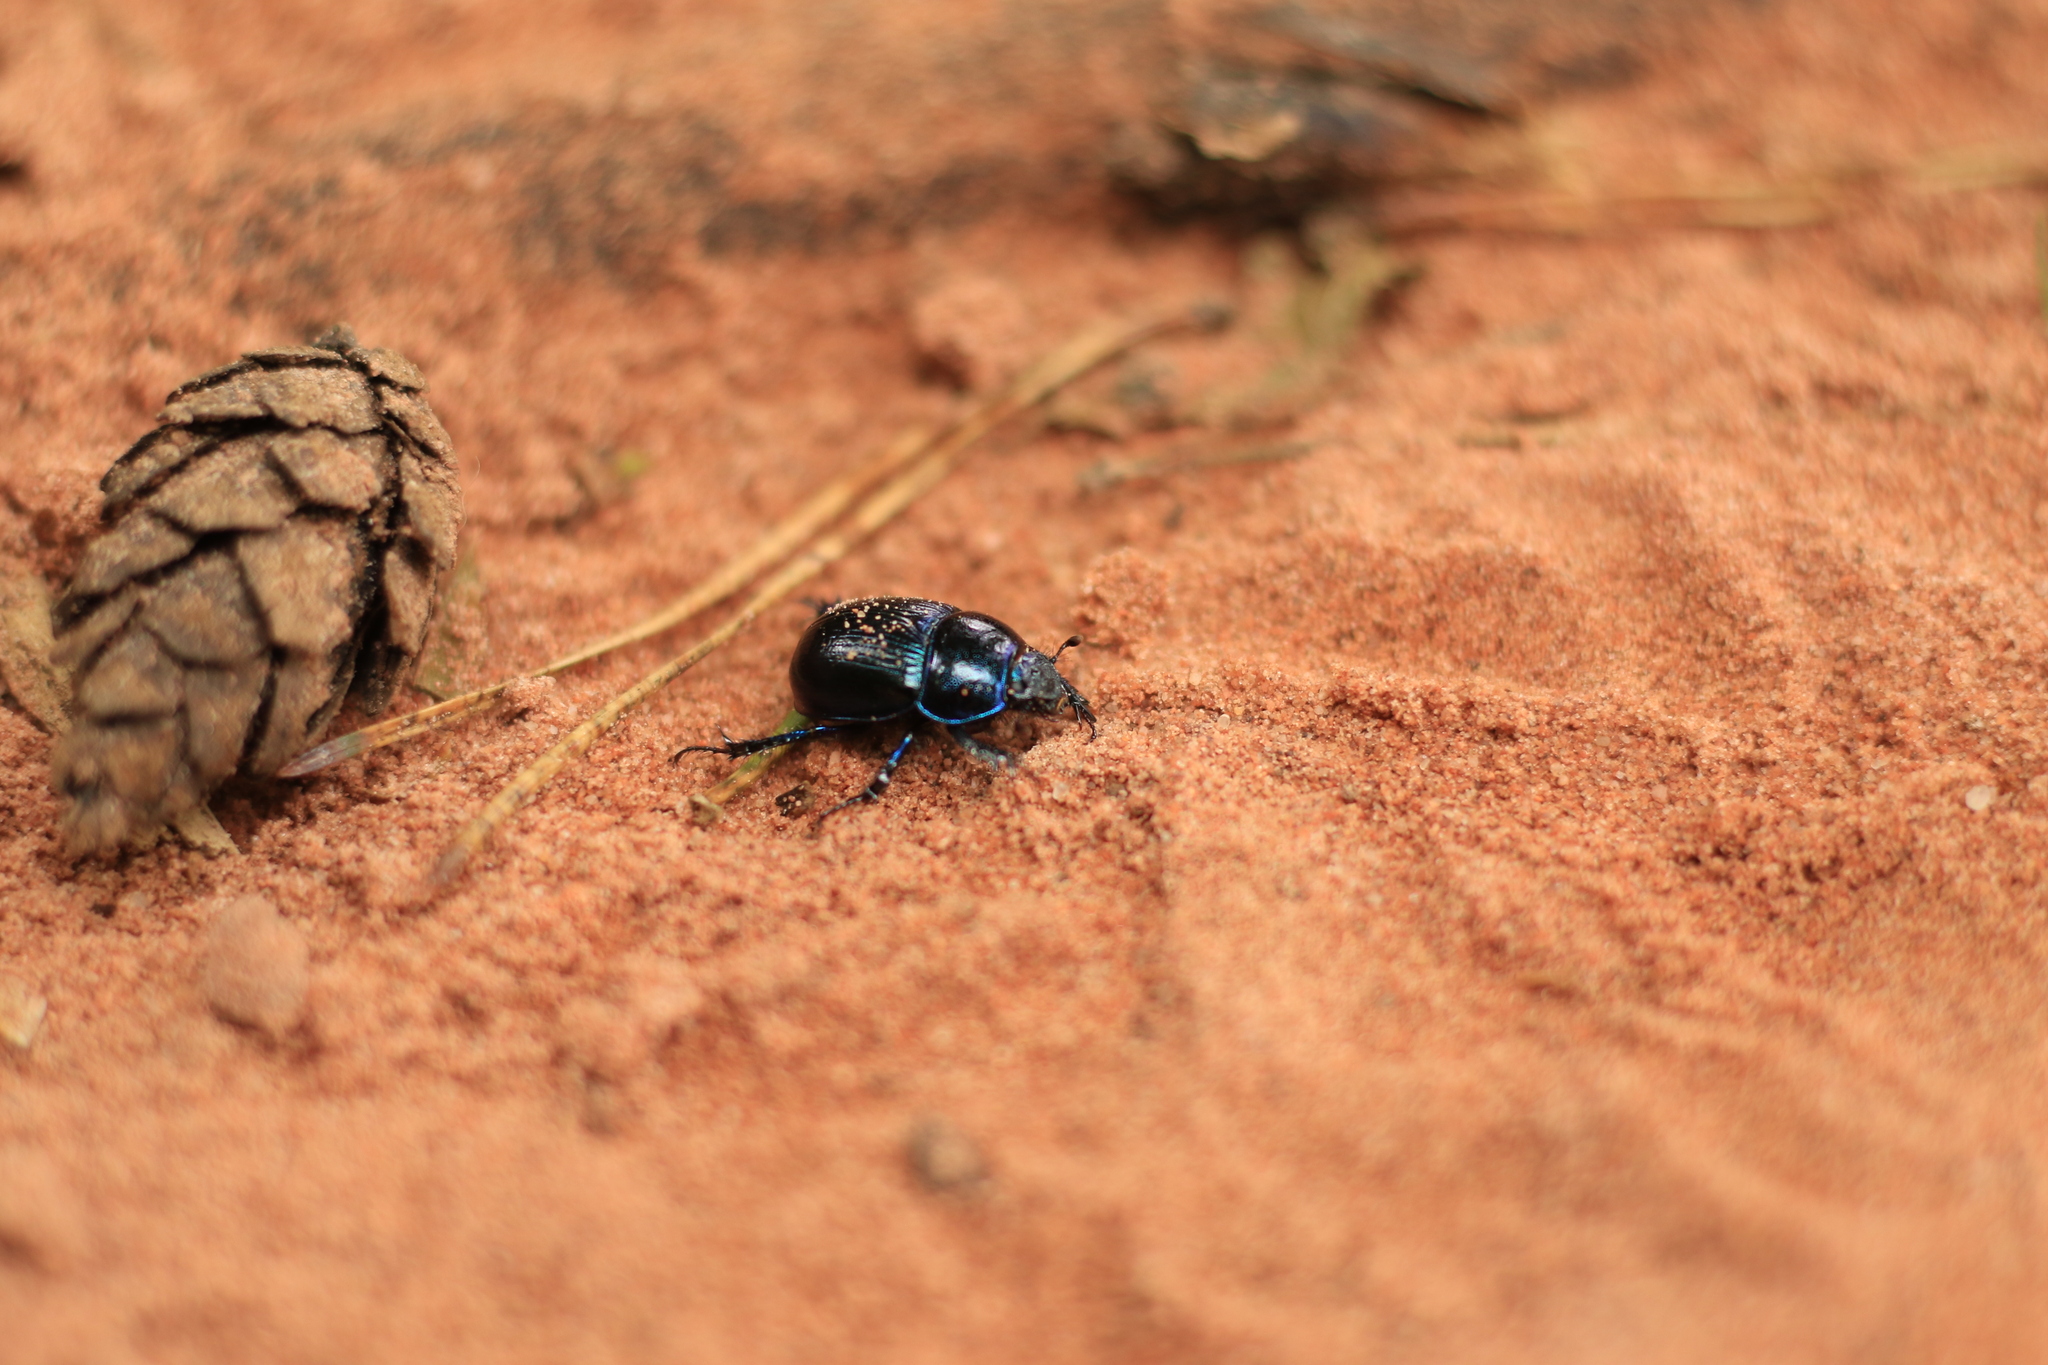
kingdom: Animalia
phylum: Arthropoda
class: Insecta
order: Coleoptera
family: Geotrupidae
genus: Anoplotrupes
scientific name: Anoplotrupes stercorosus
